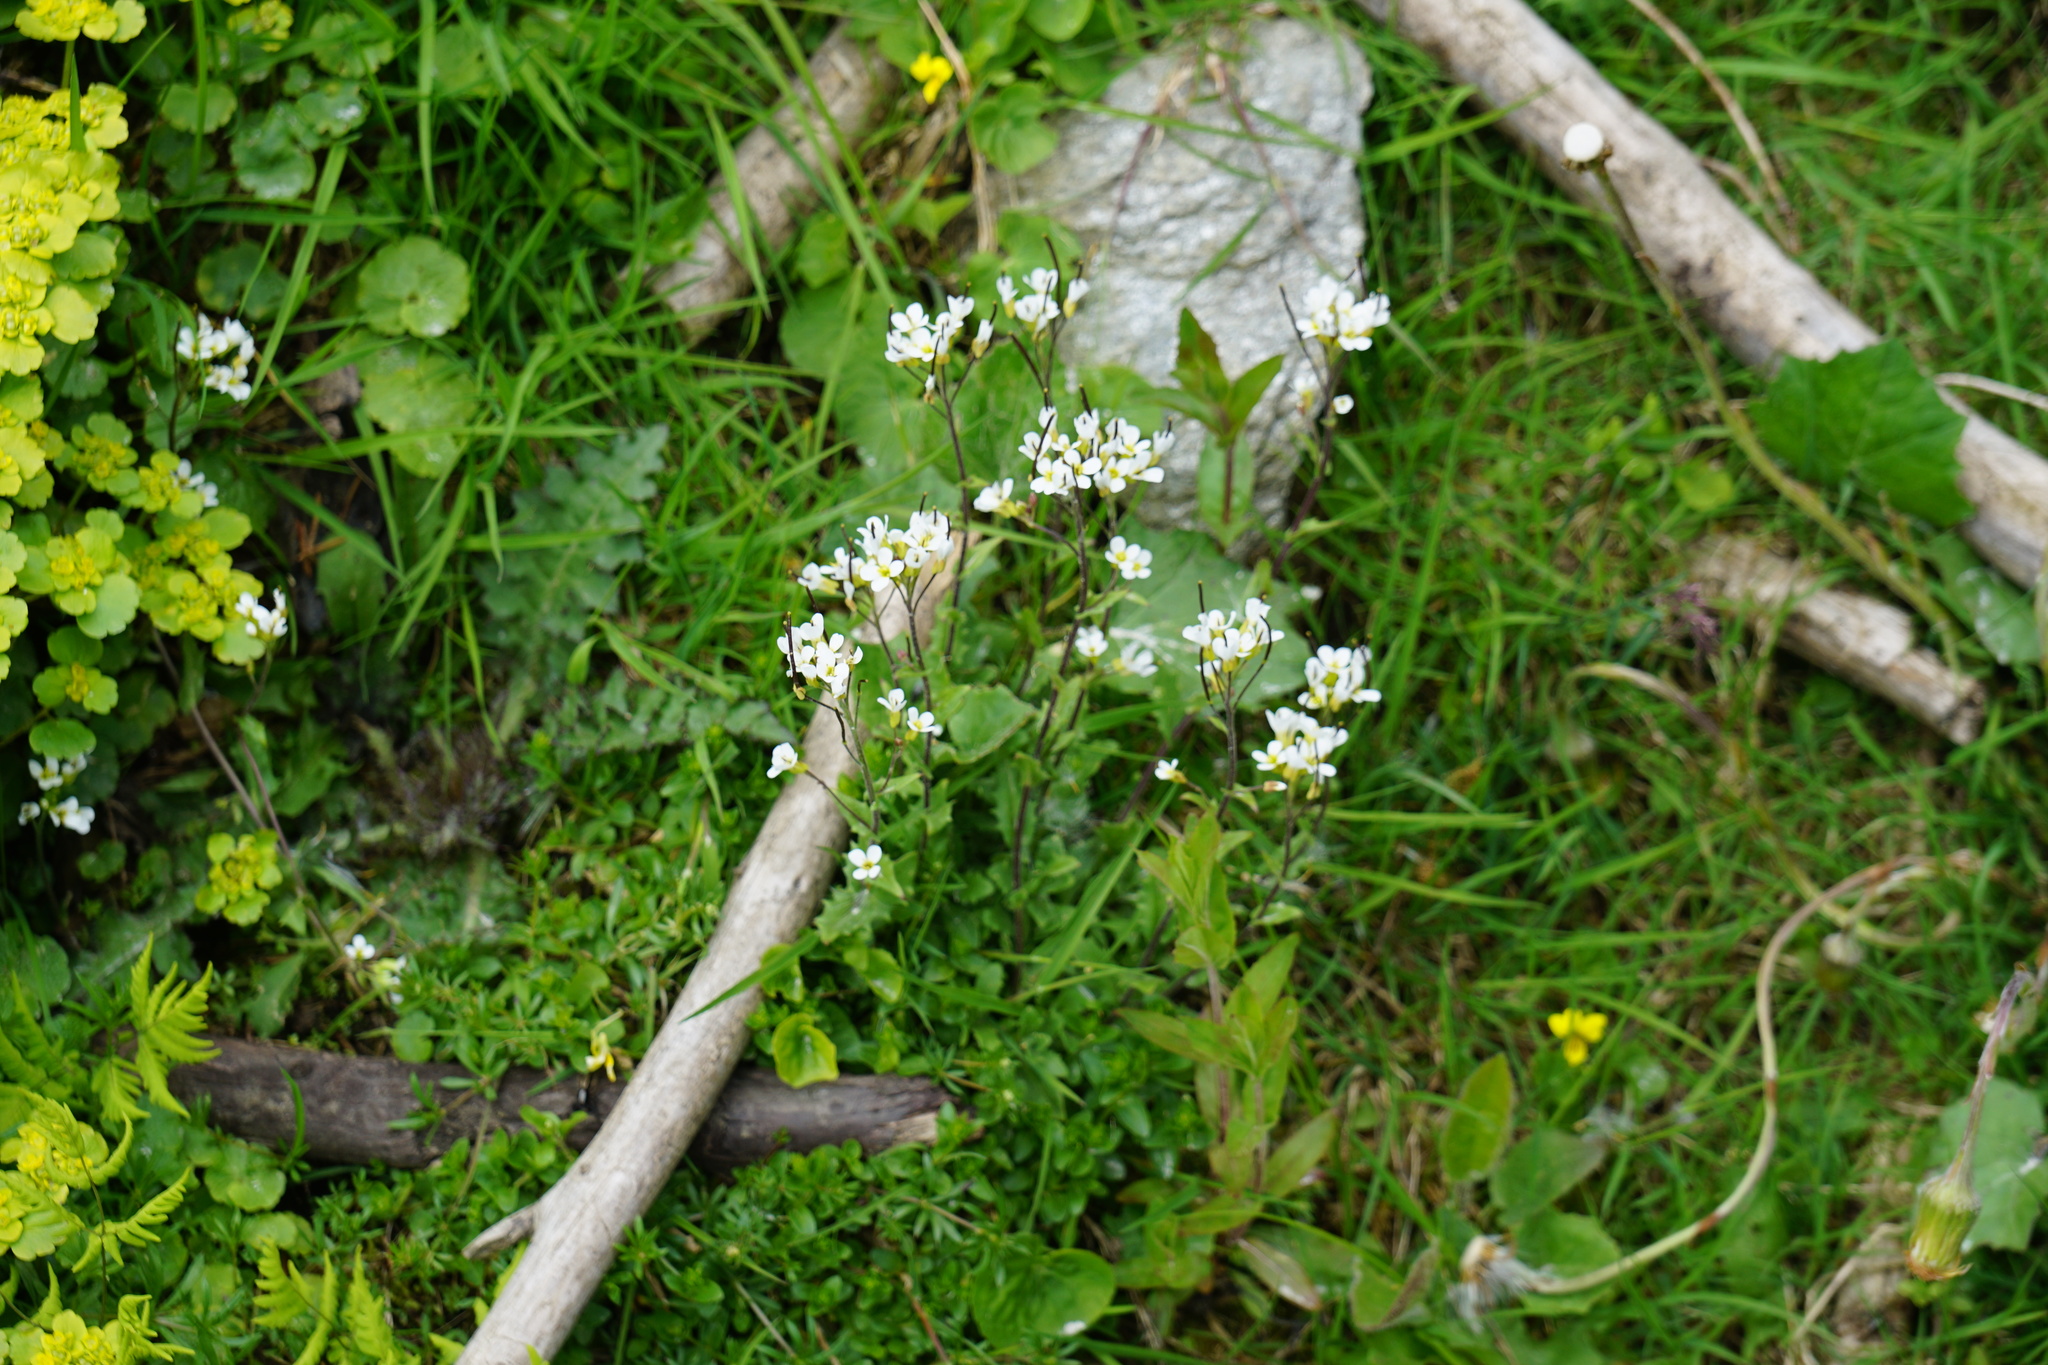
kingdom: Plantae
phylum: Tracheophyta
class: Magnoliopsida
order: Brassicales
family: Brassicaceae
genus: Arabis
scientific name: Arabis alpina
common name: Alpine rock-cress
